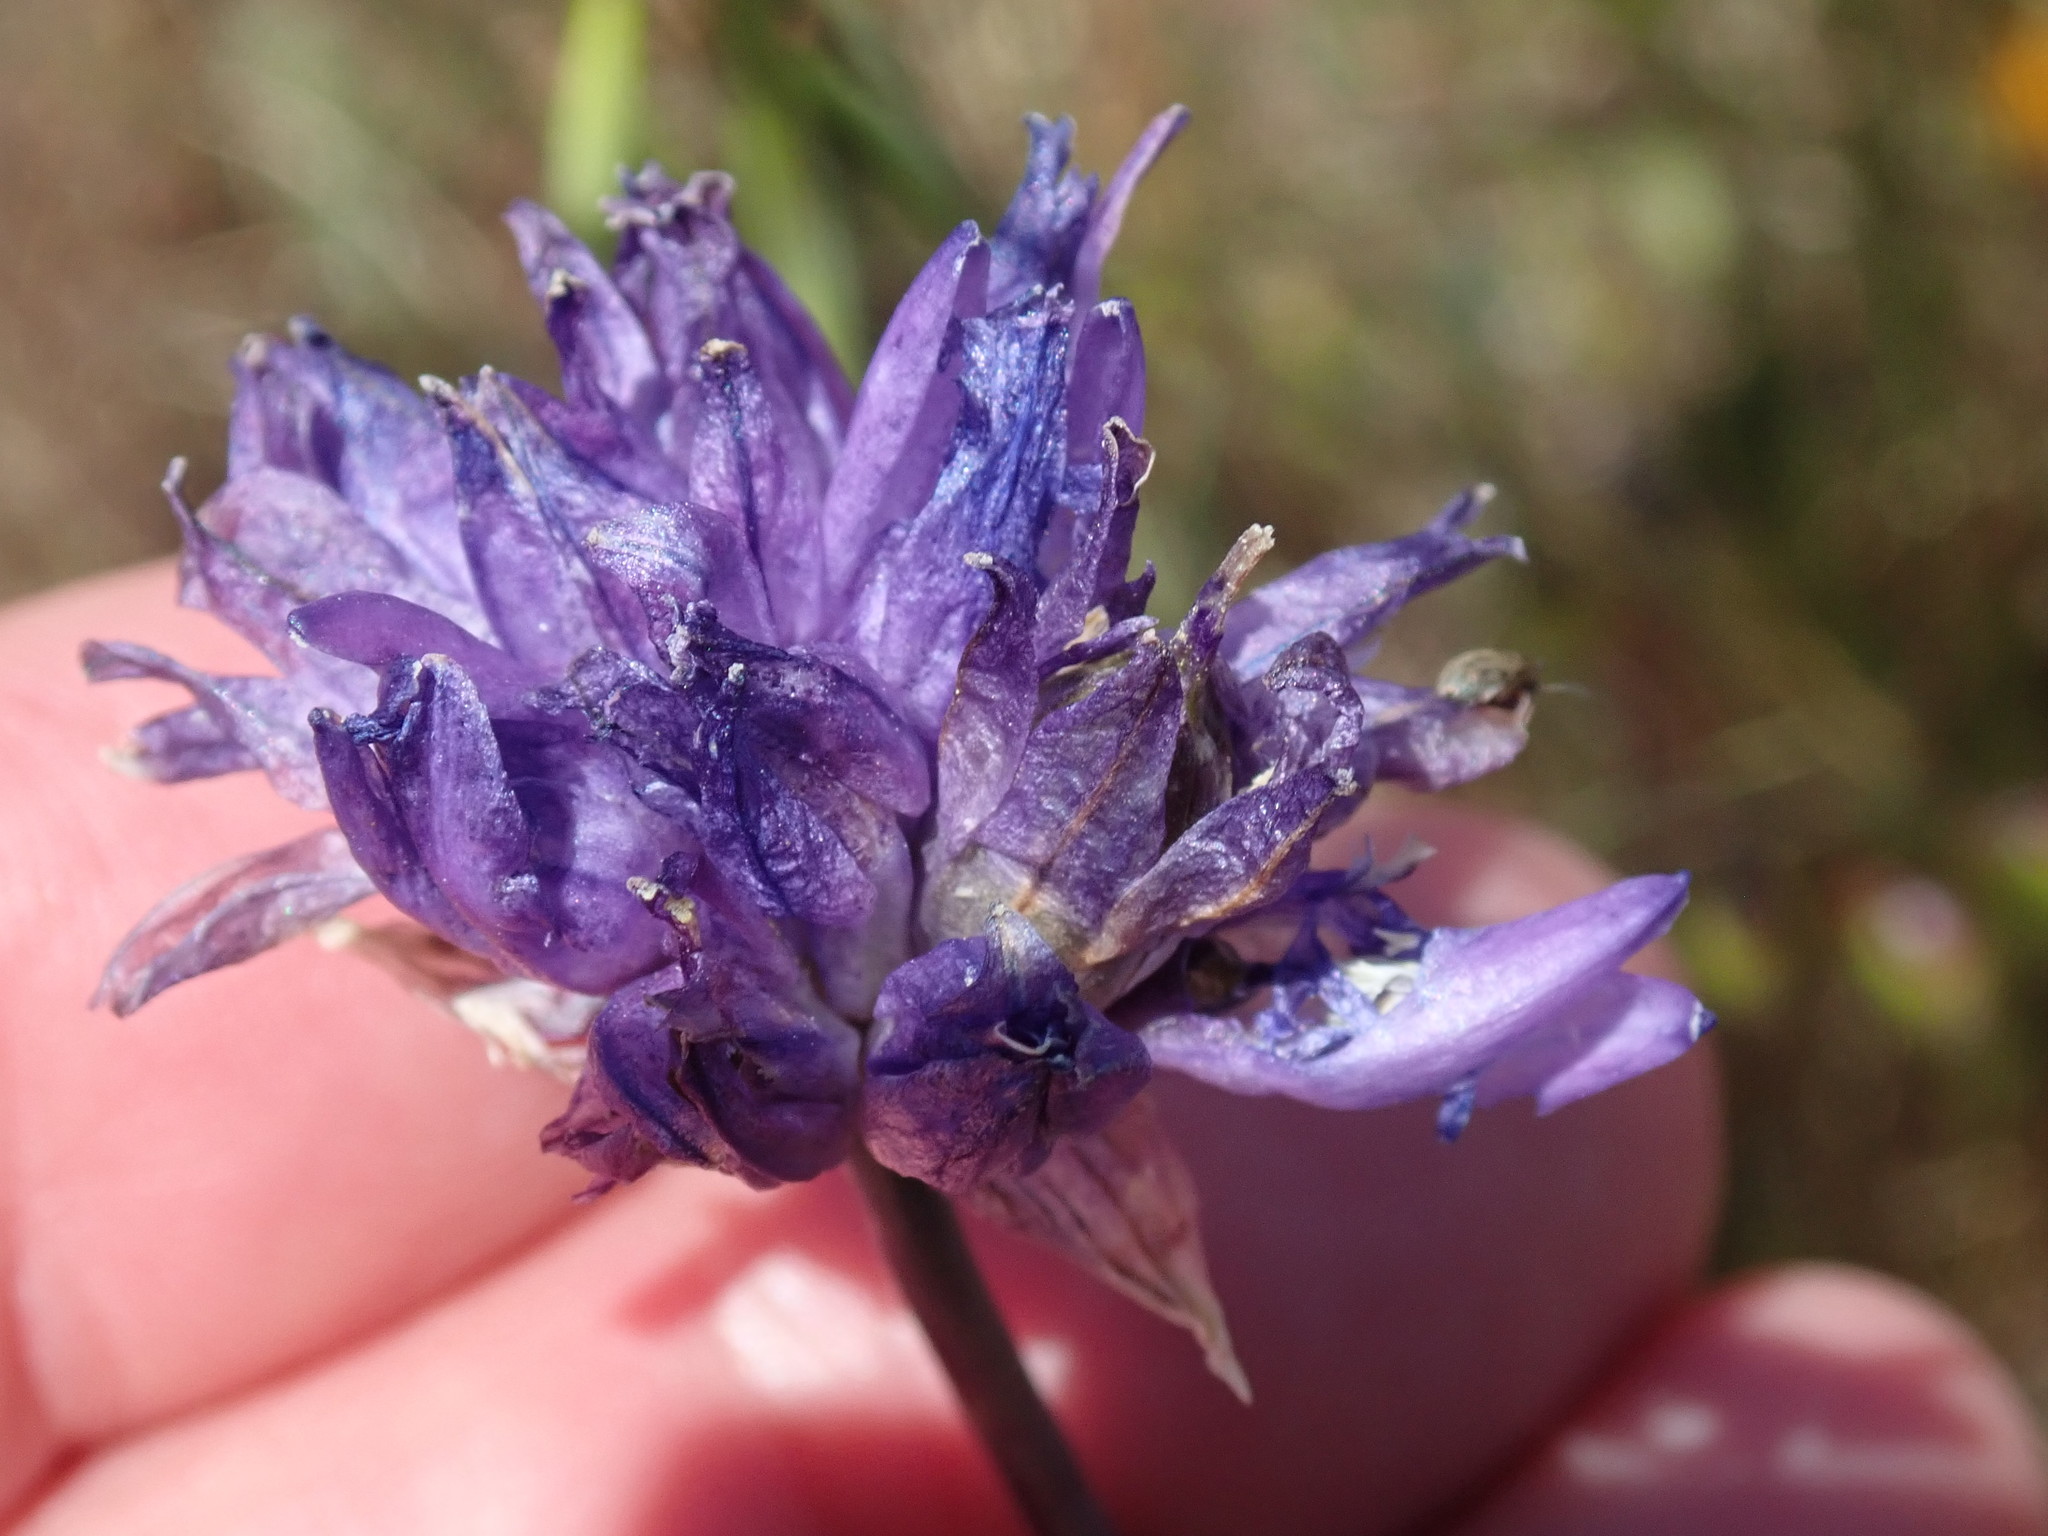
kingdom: Plantae
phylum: Tracheophyta
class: Liliopsida
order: Asparagales
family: Asparagaceae
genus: Dipterostemon
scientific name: Dipterostemon capitatus
